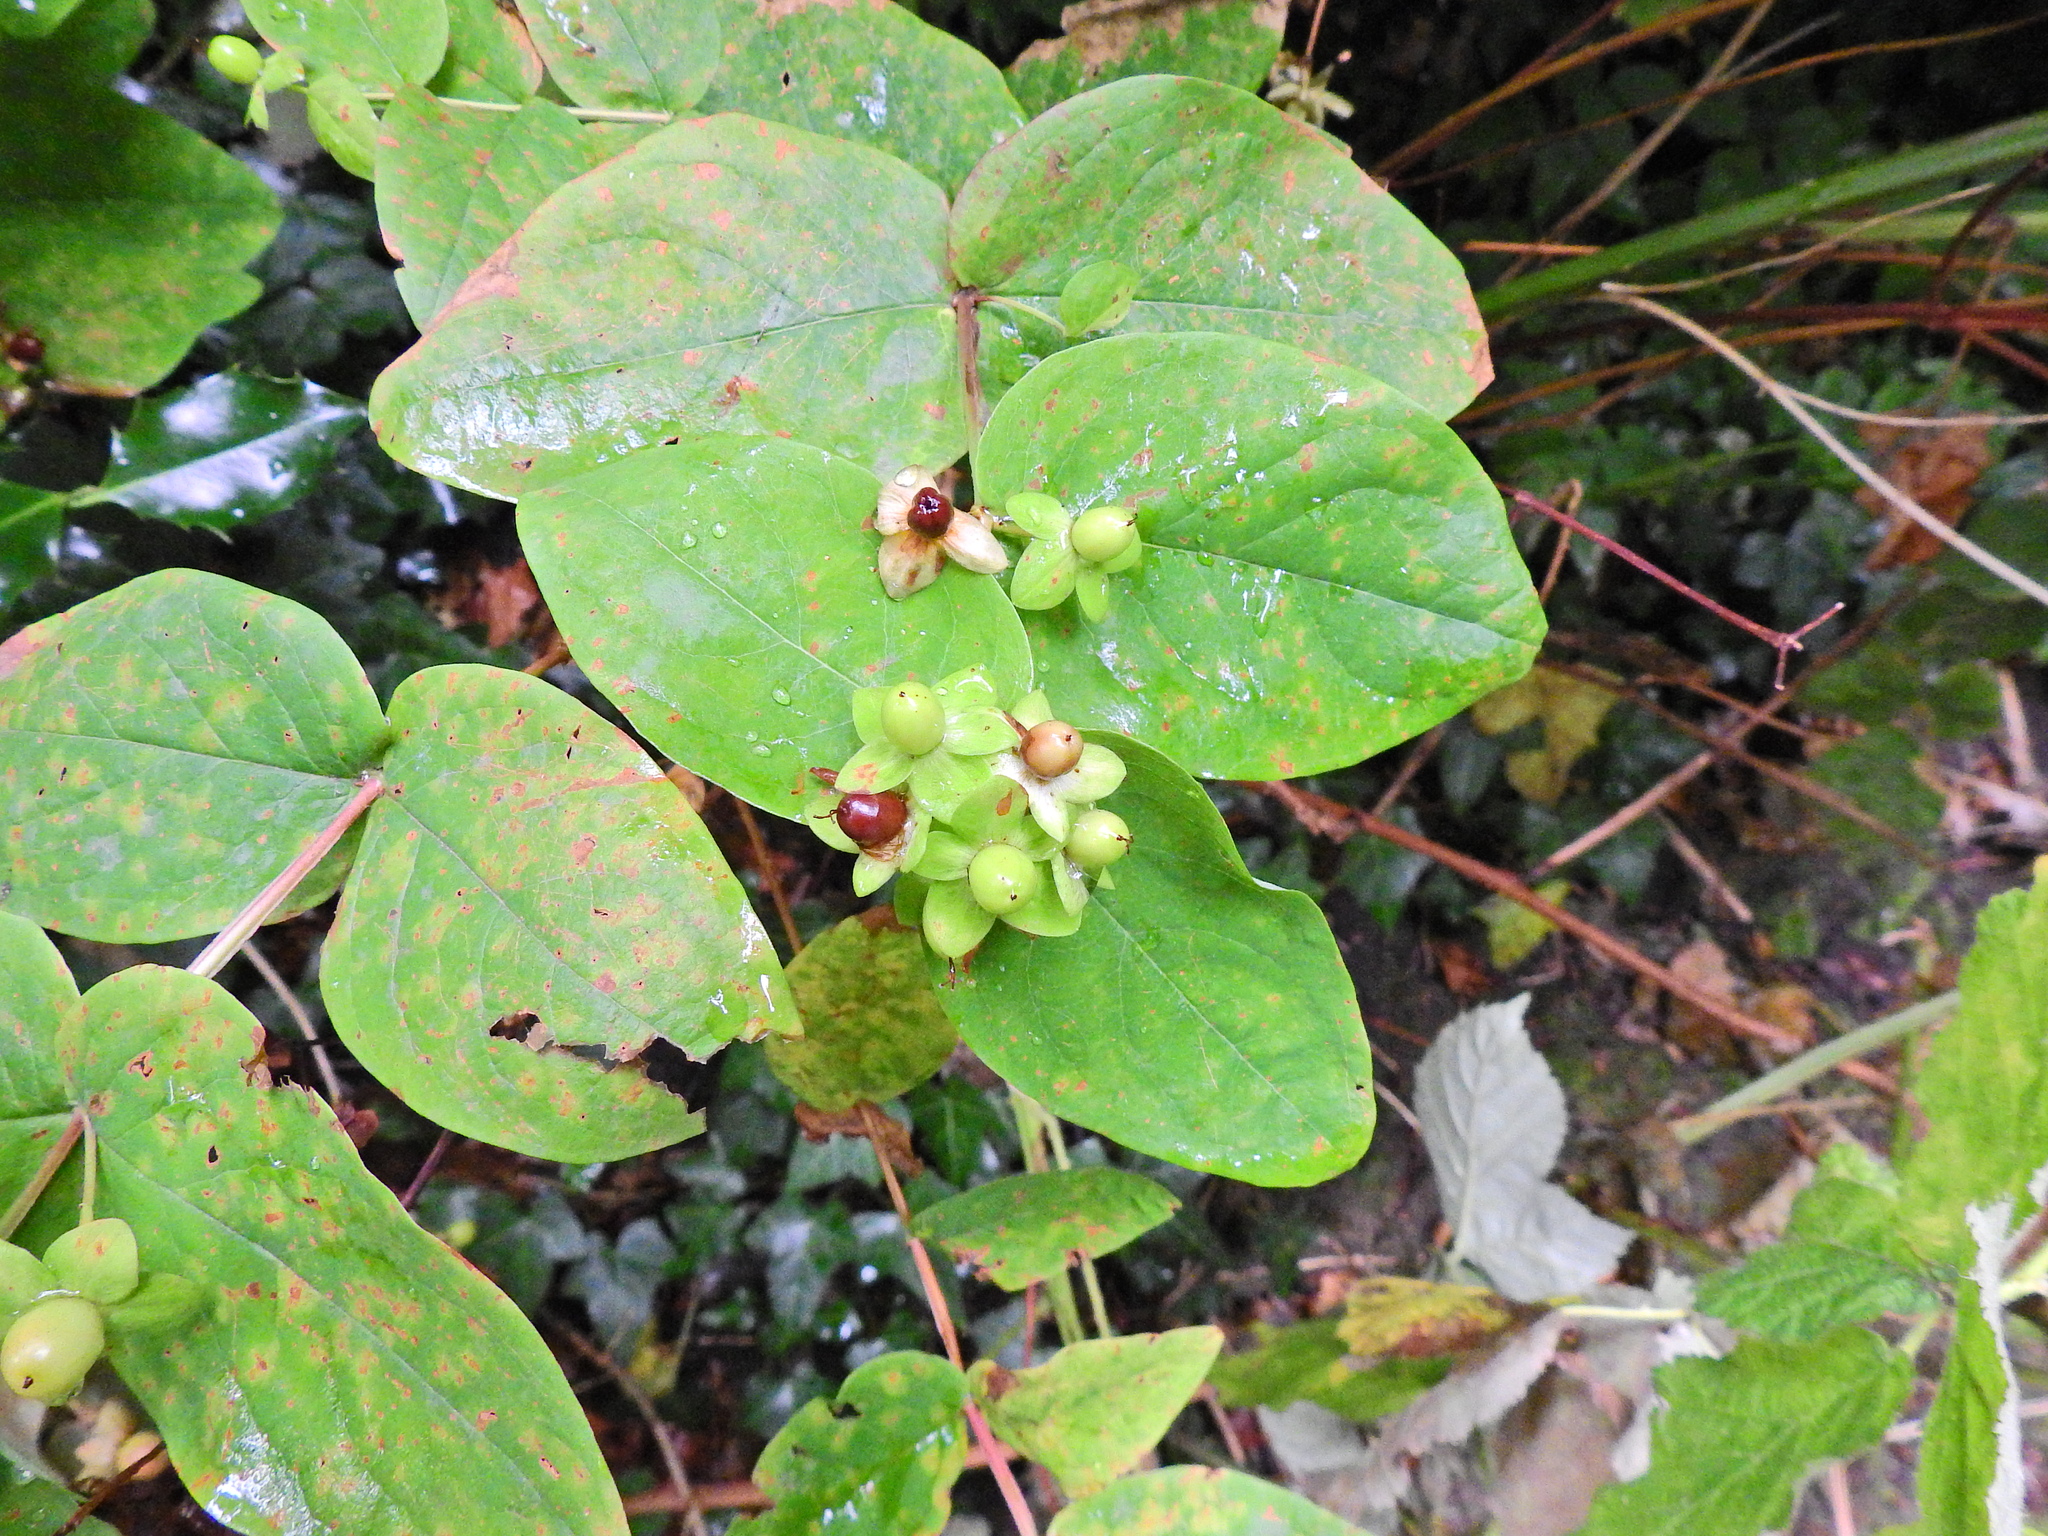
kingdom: Plantae
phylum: Tracheophyta
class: Magnoliopsida
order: Malpighiales
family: Hypericaceae
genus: Hypericum
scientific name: Hypericum androsaemum
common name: Sweet-amber
